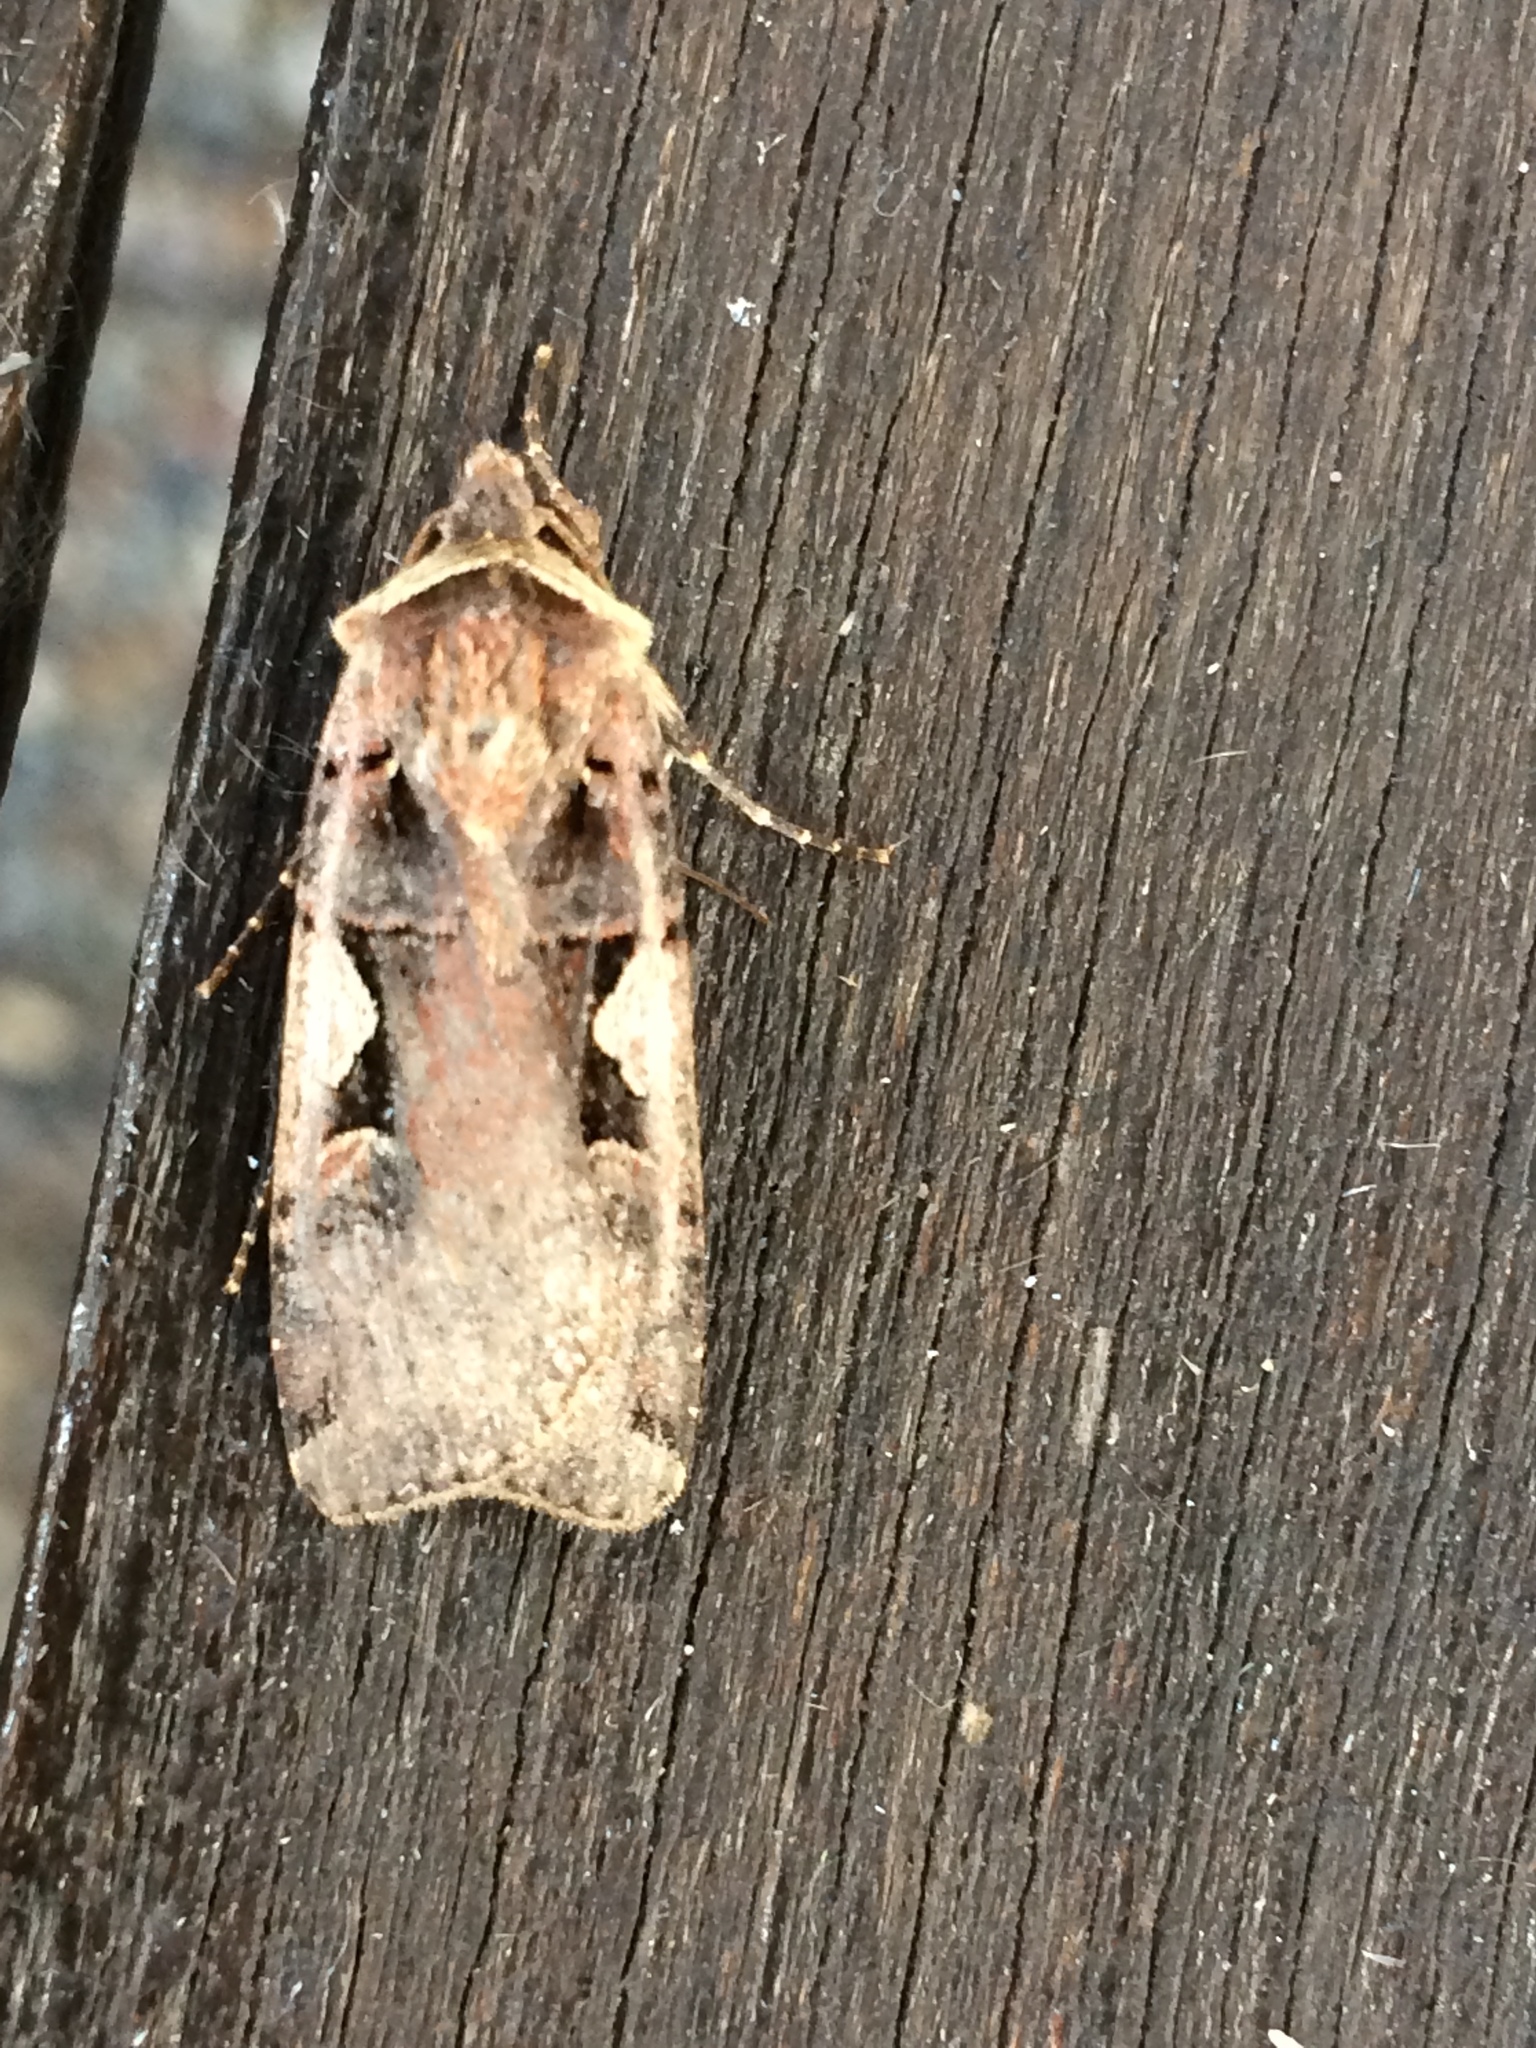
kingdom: Animalia
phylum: Arthropoda
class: Insecta
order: Lepidoptera
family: Noctuidae
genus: Xestia
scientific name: Xestia c-nigrum
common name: Setaceous hebrew character
